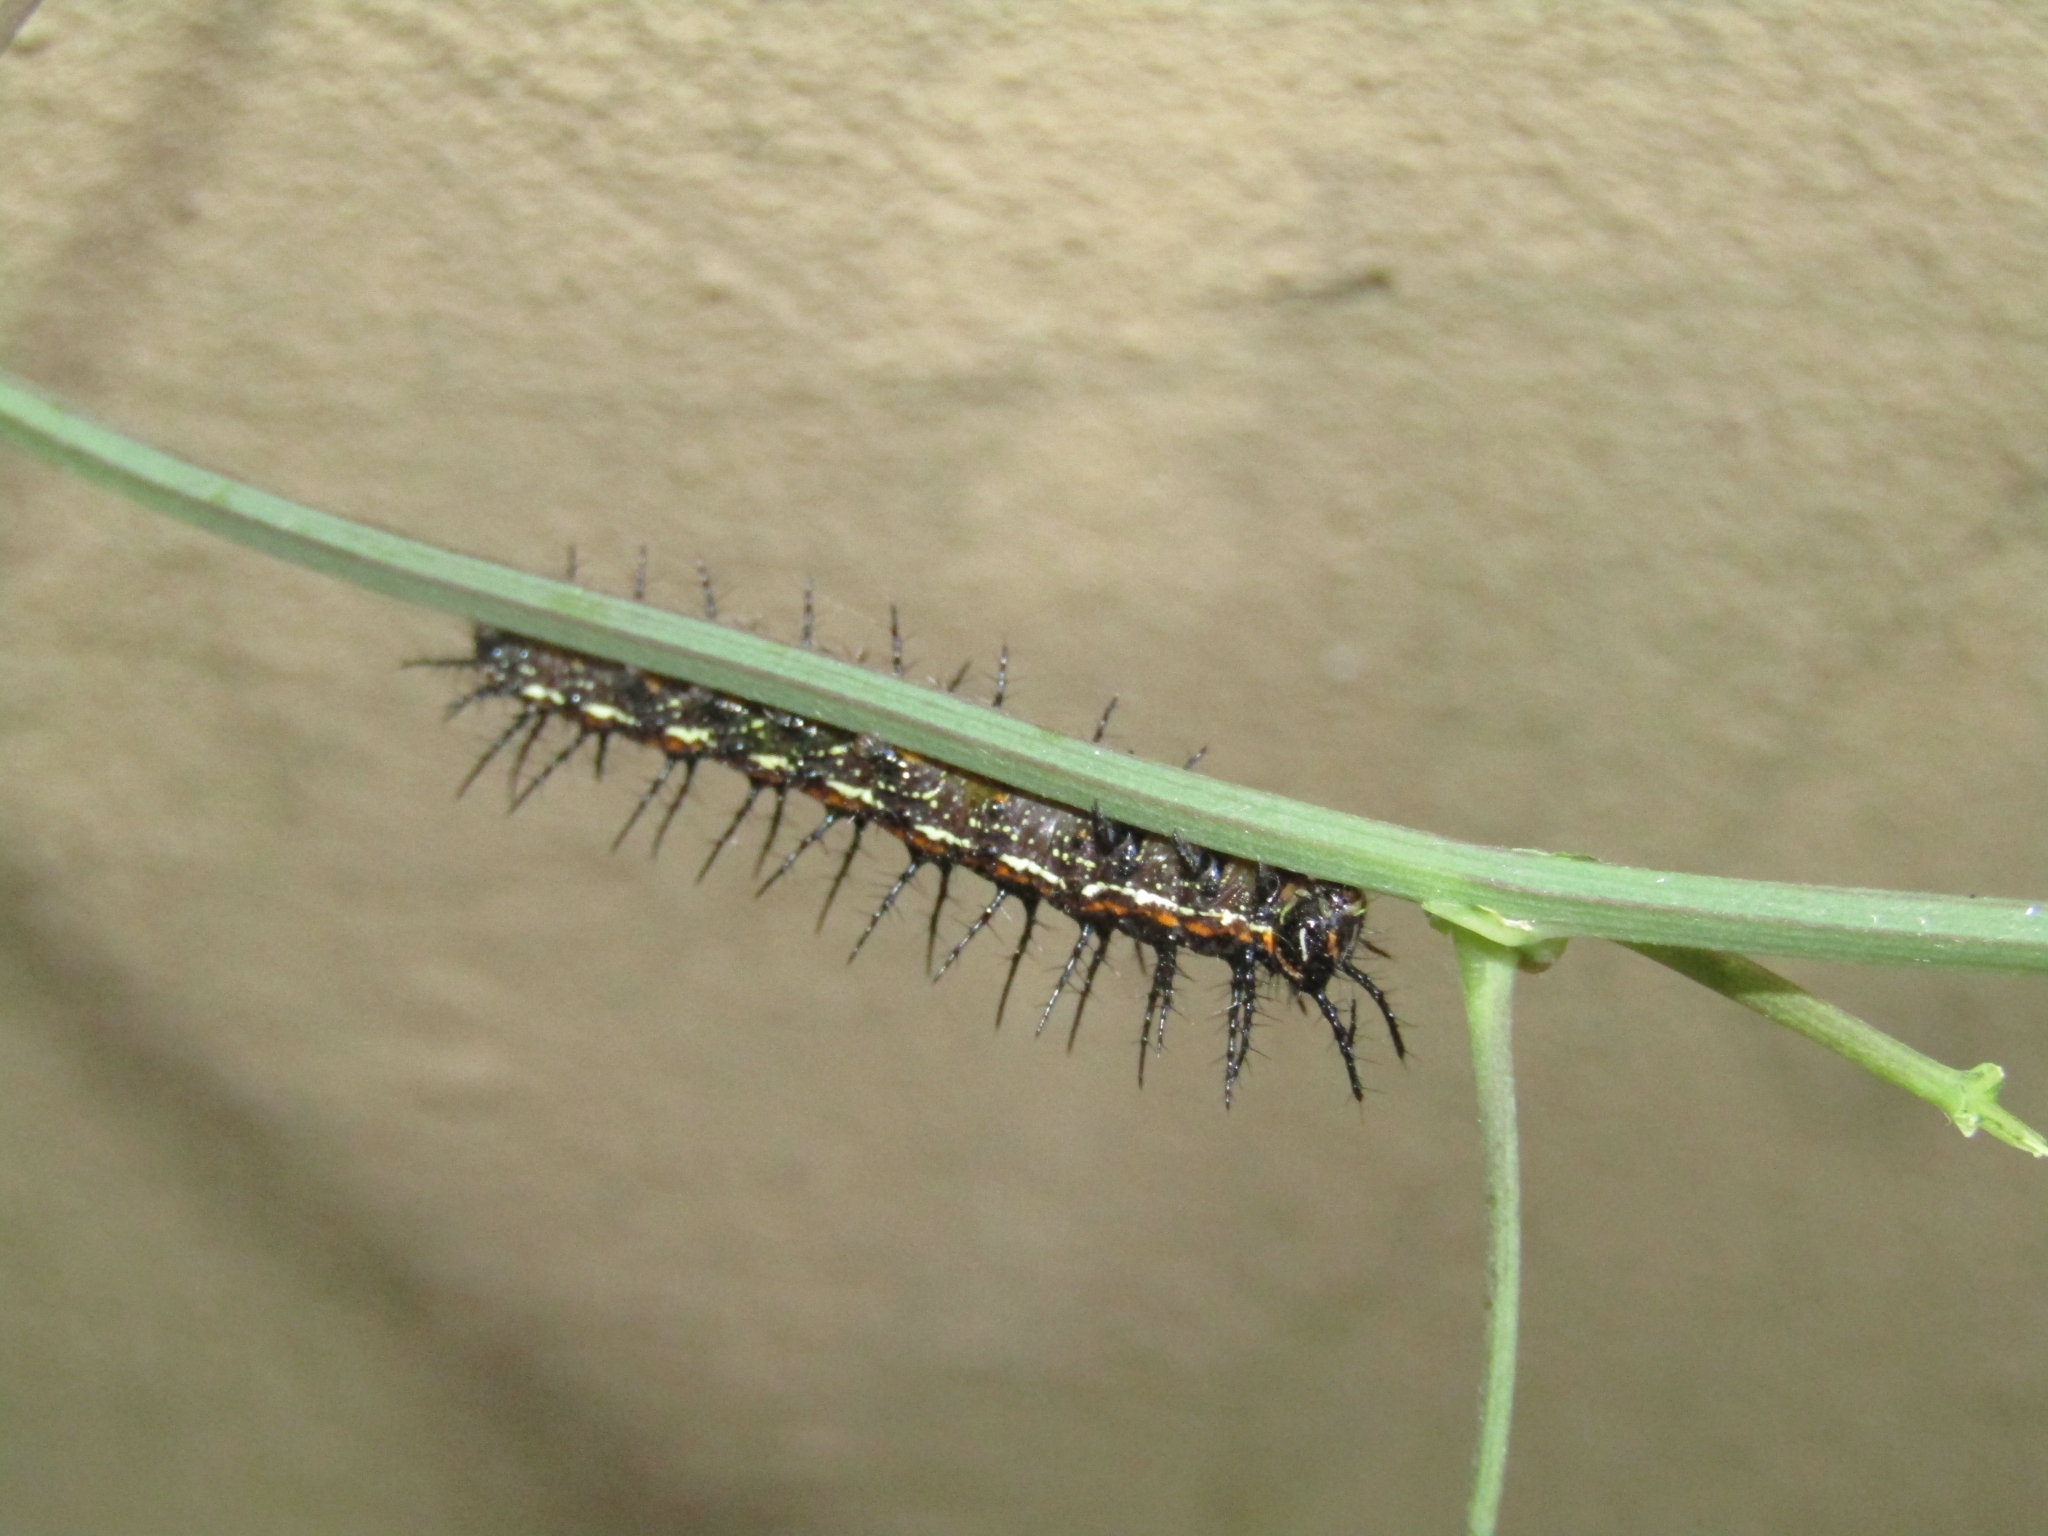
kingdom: Animalia
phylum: Arthropoda
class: Insecta
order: Lepidoptera
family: Nymphalidae
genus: Dione
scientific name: Dione vanillae
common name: Gulf fritillary
